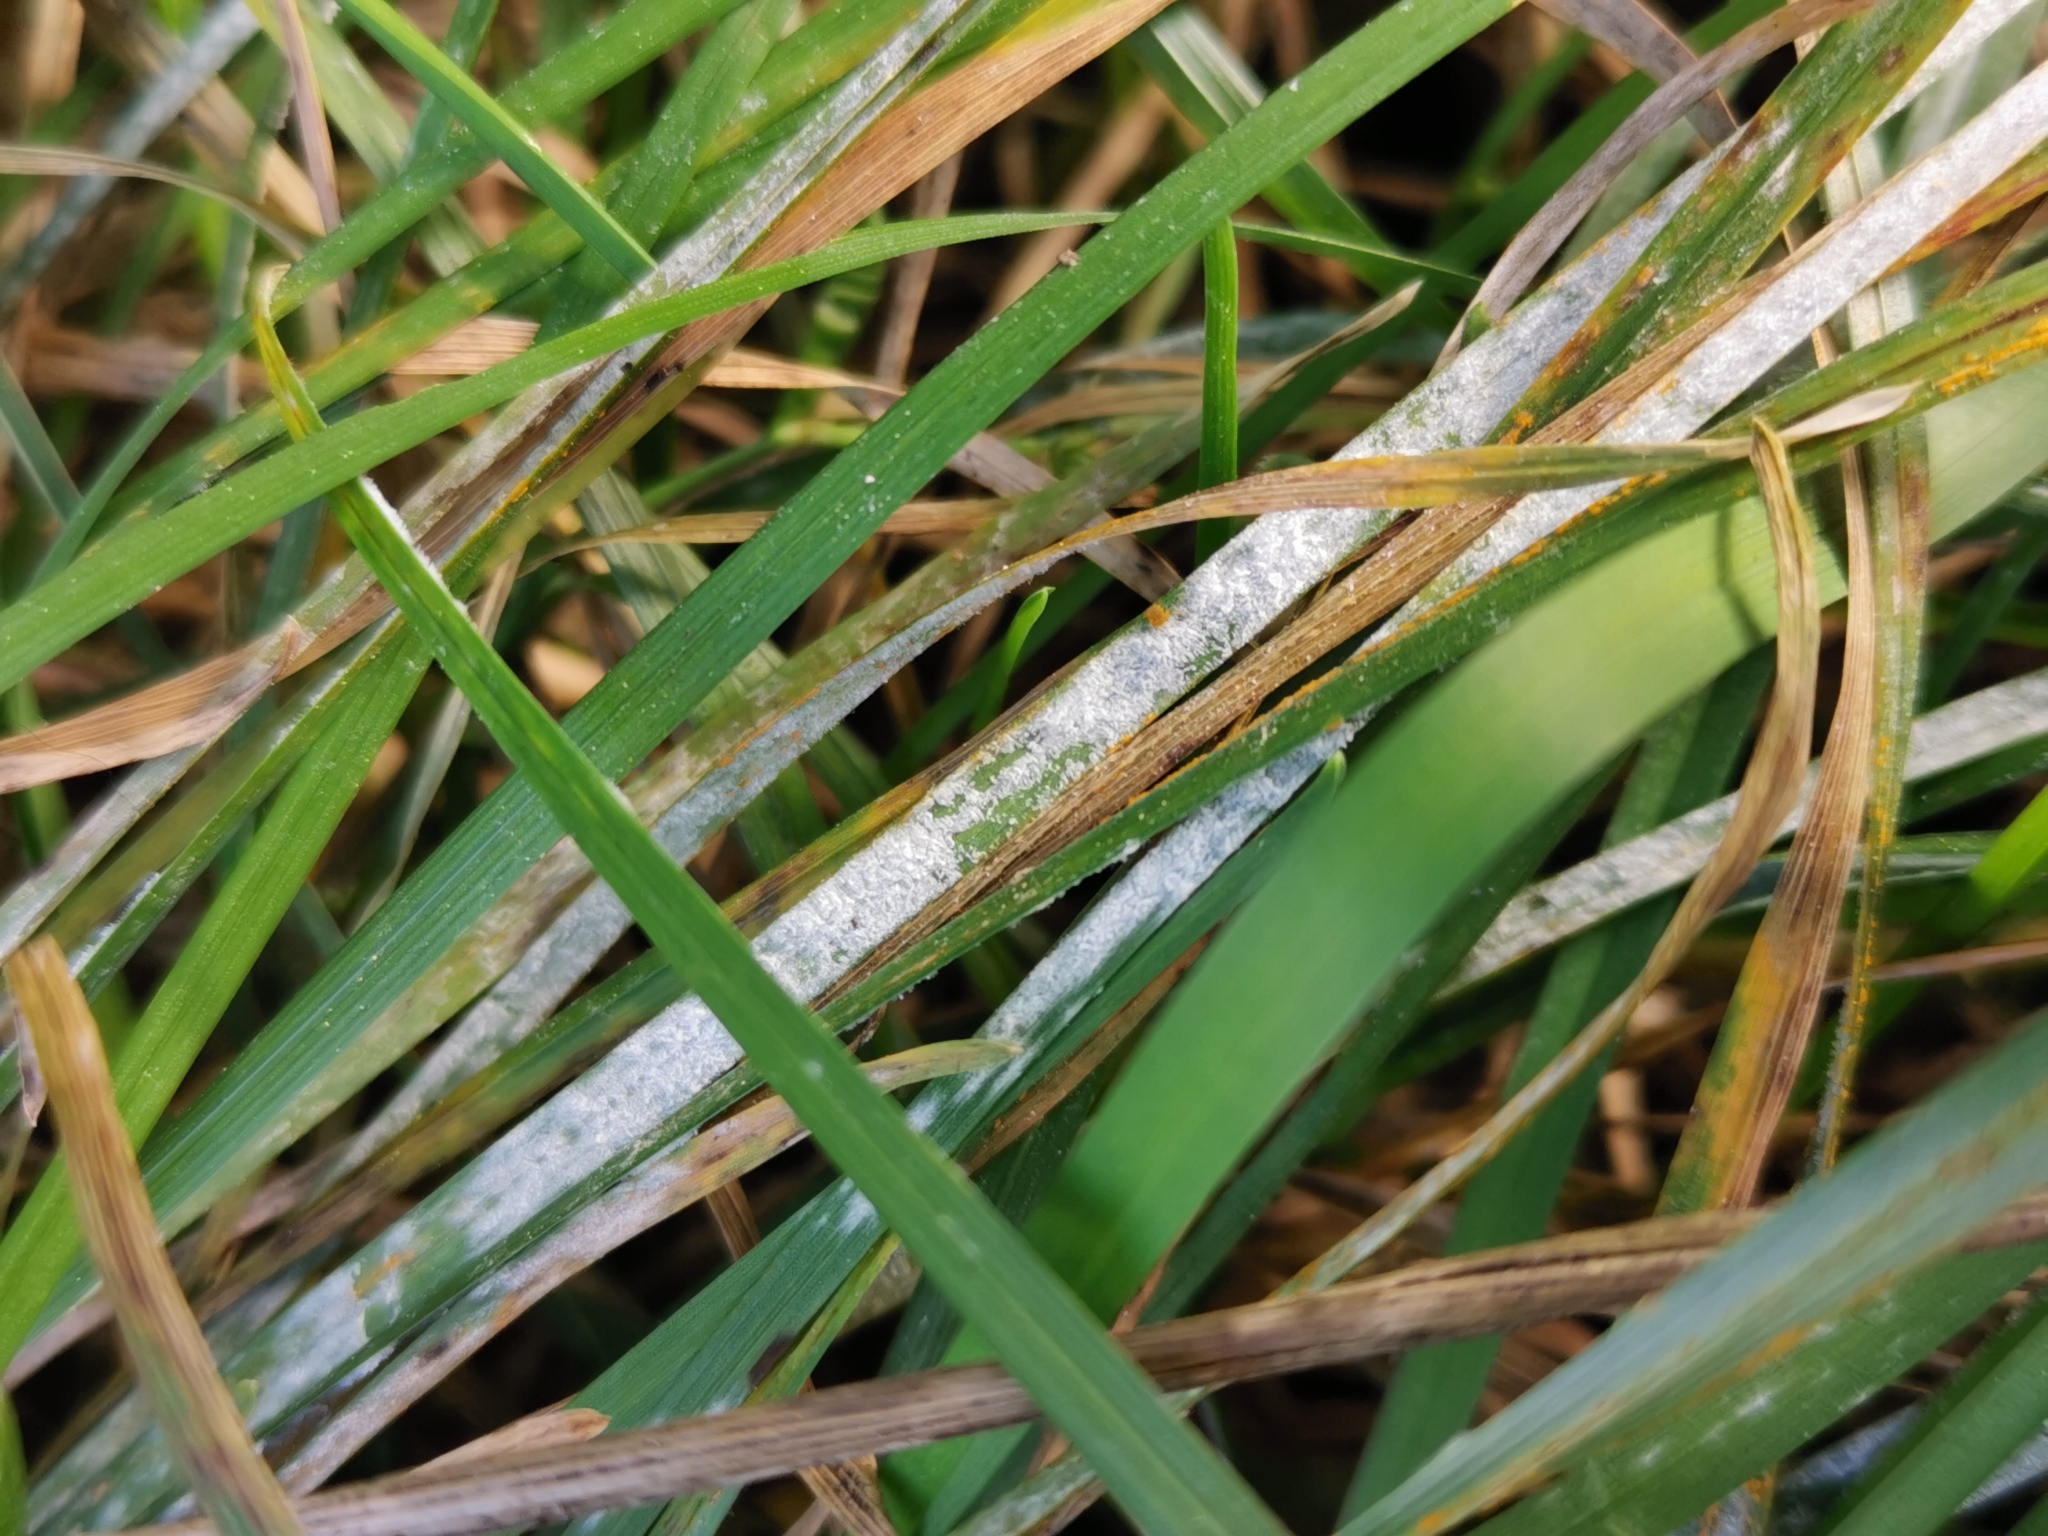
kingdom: Fungi
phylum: Ascomycota
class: Leotiomycetes
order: Helotiales
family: Erysiphaceae
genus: Blumeria
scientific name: Blumeria graminis
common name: Grass and cereal powdery mildew
